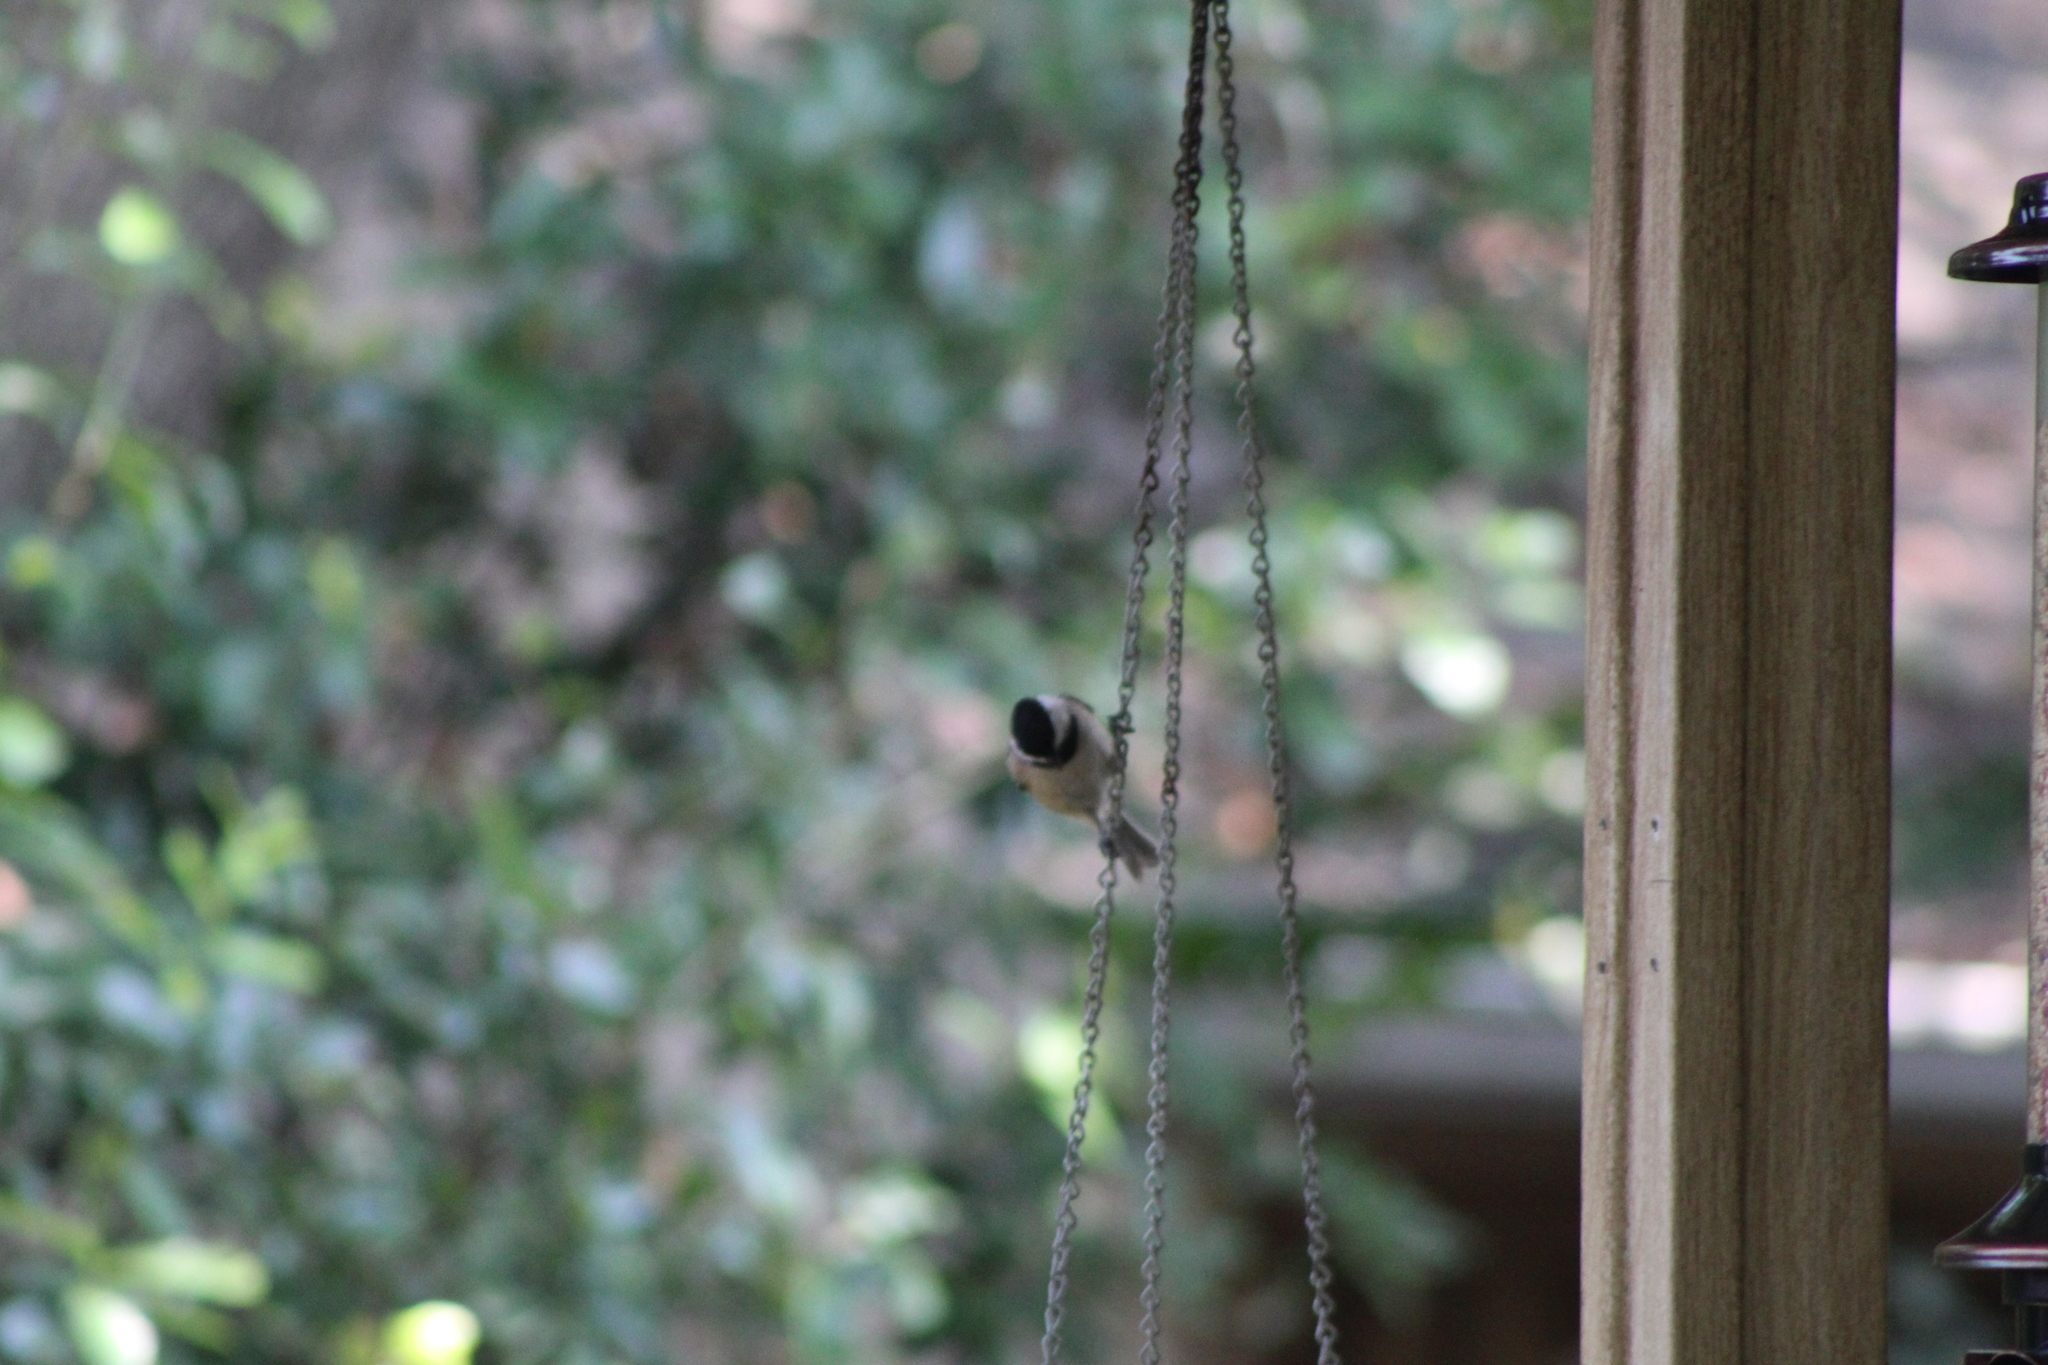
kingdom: Animalia
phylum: Chordata
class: Aves
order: Passeriformes
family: Paridae
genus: Poecile
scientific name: Poecile carolinensis
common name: Carolina chickadee
